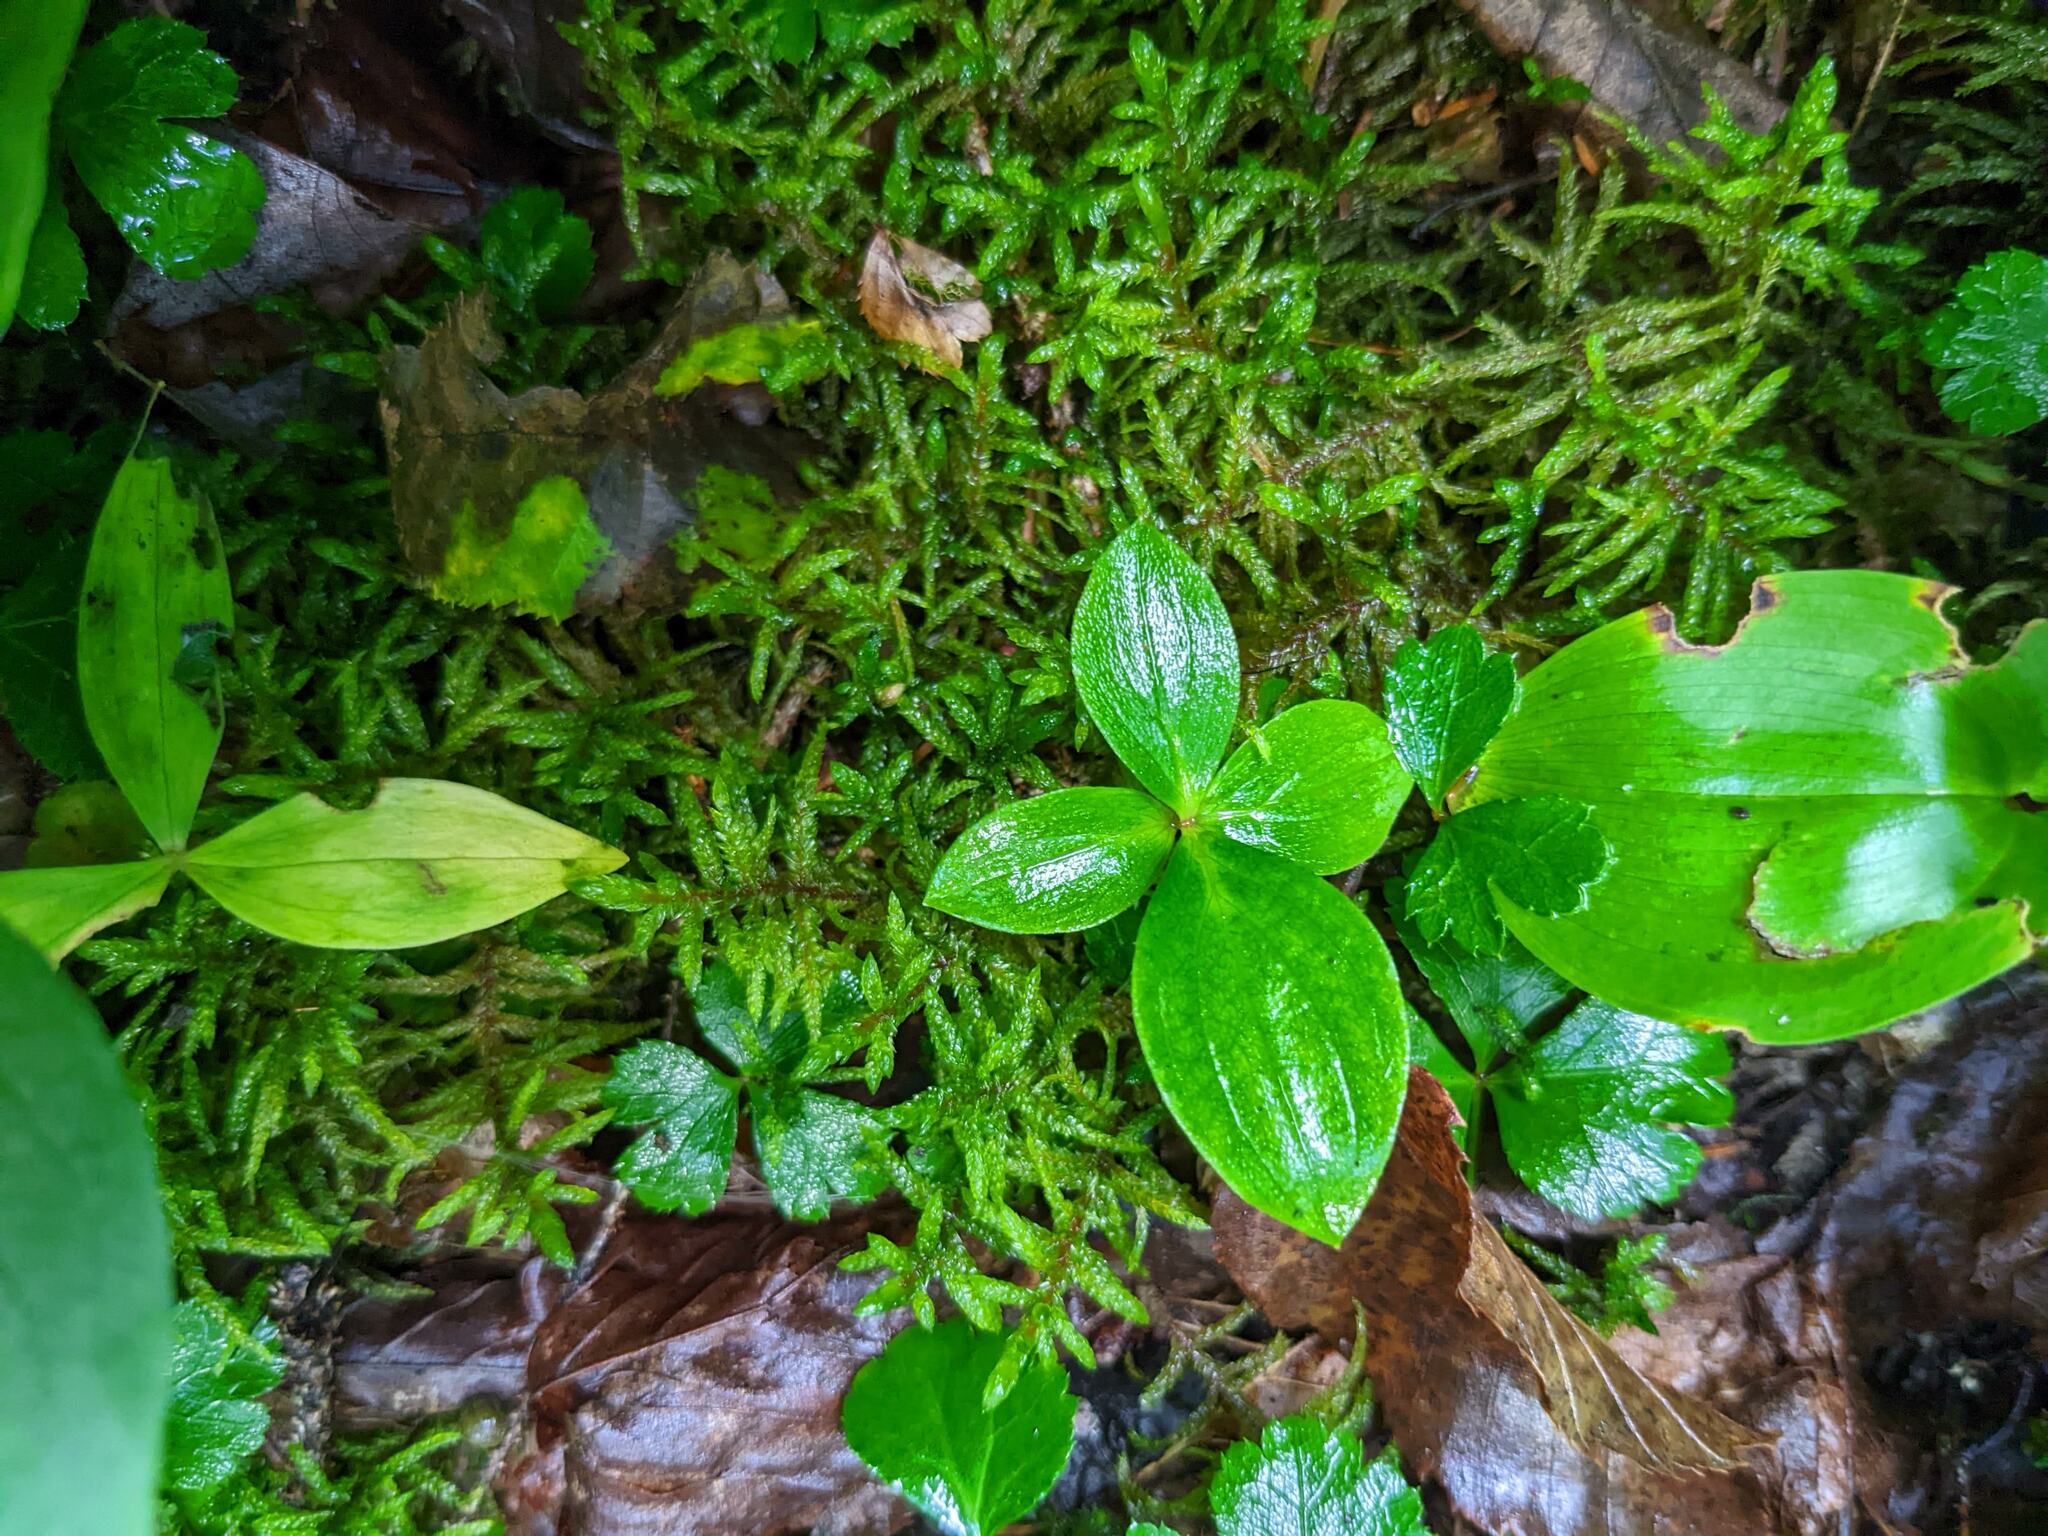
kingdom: Plantae
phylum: Tracheophyta
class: Magnoliopsida
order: Cornales
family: Cornaceae
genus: Cornus
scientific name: Cornus canadensis
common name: Creeping dogwood
